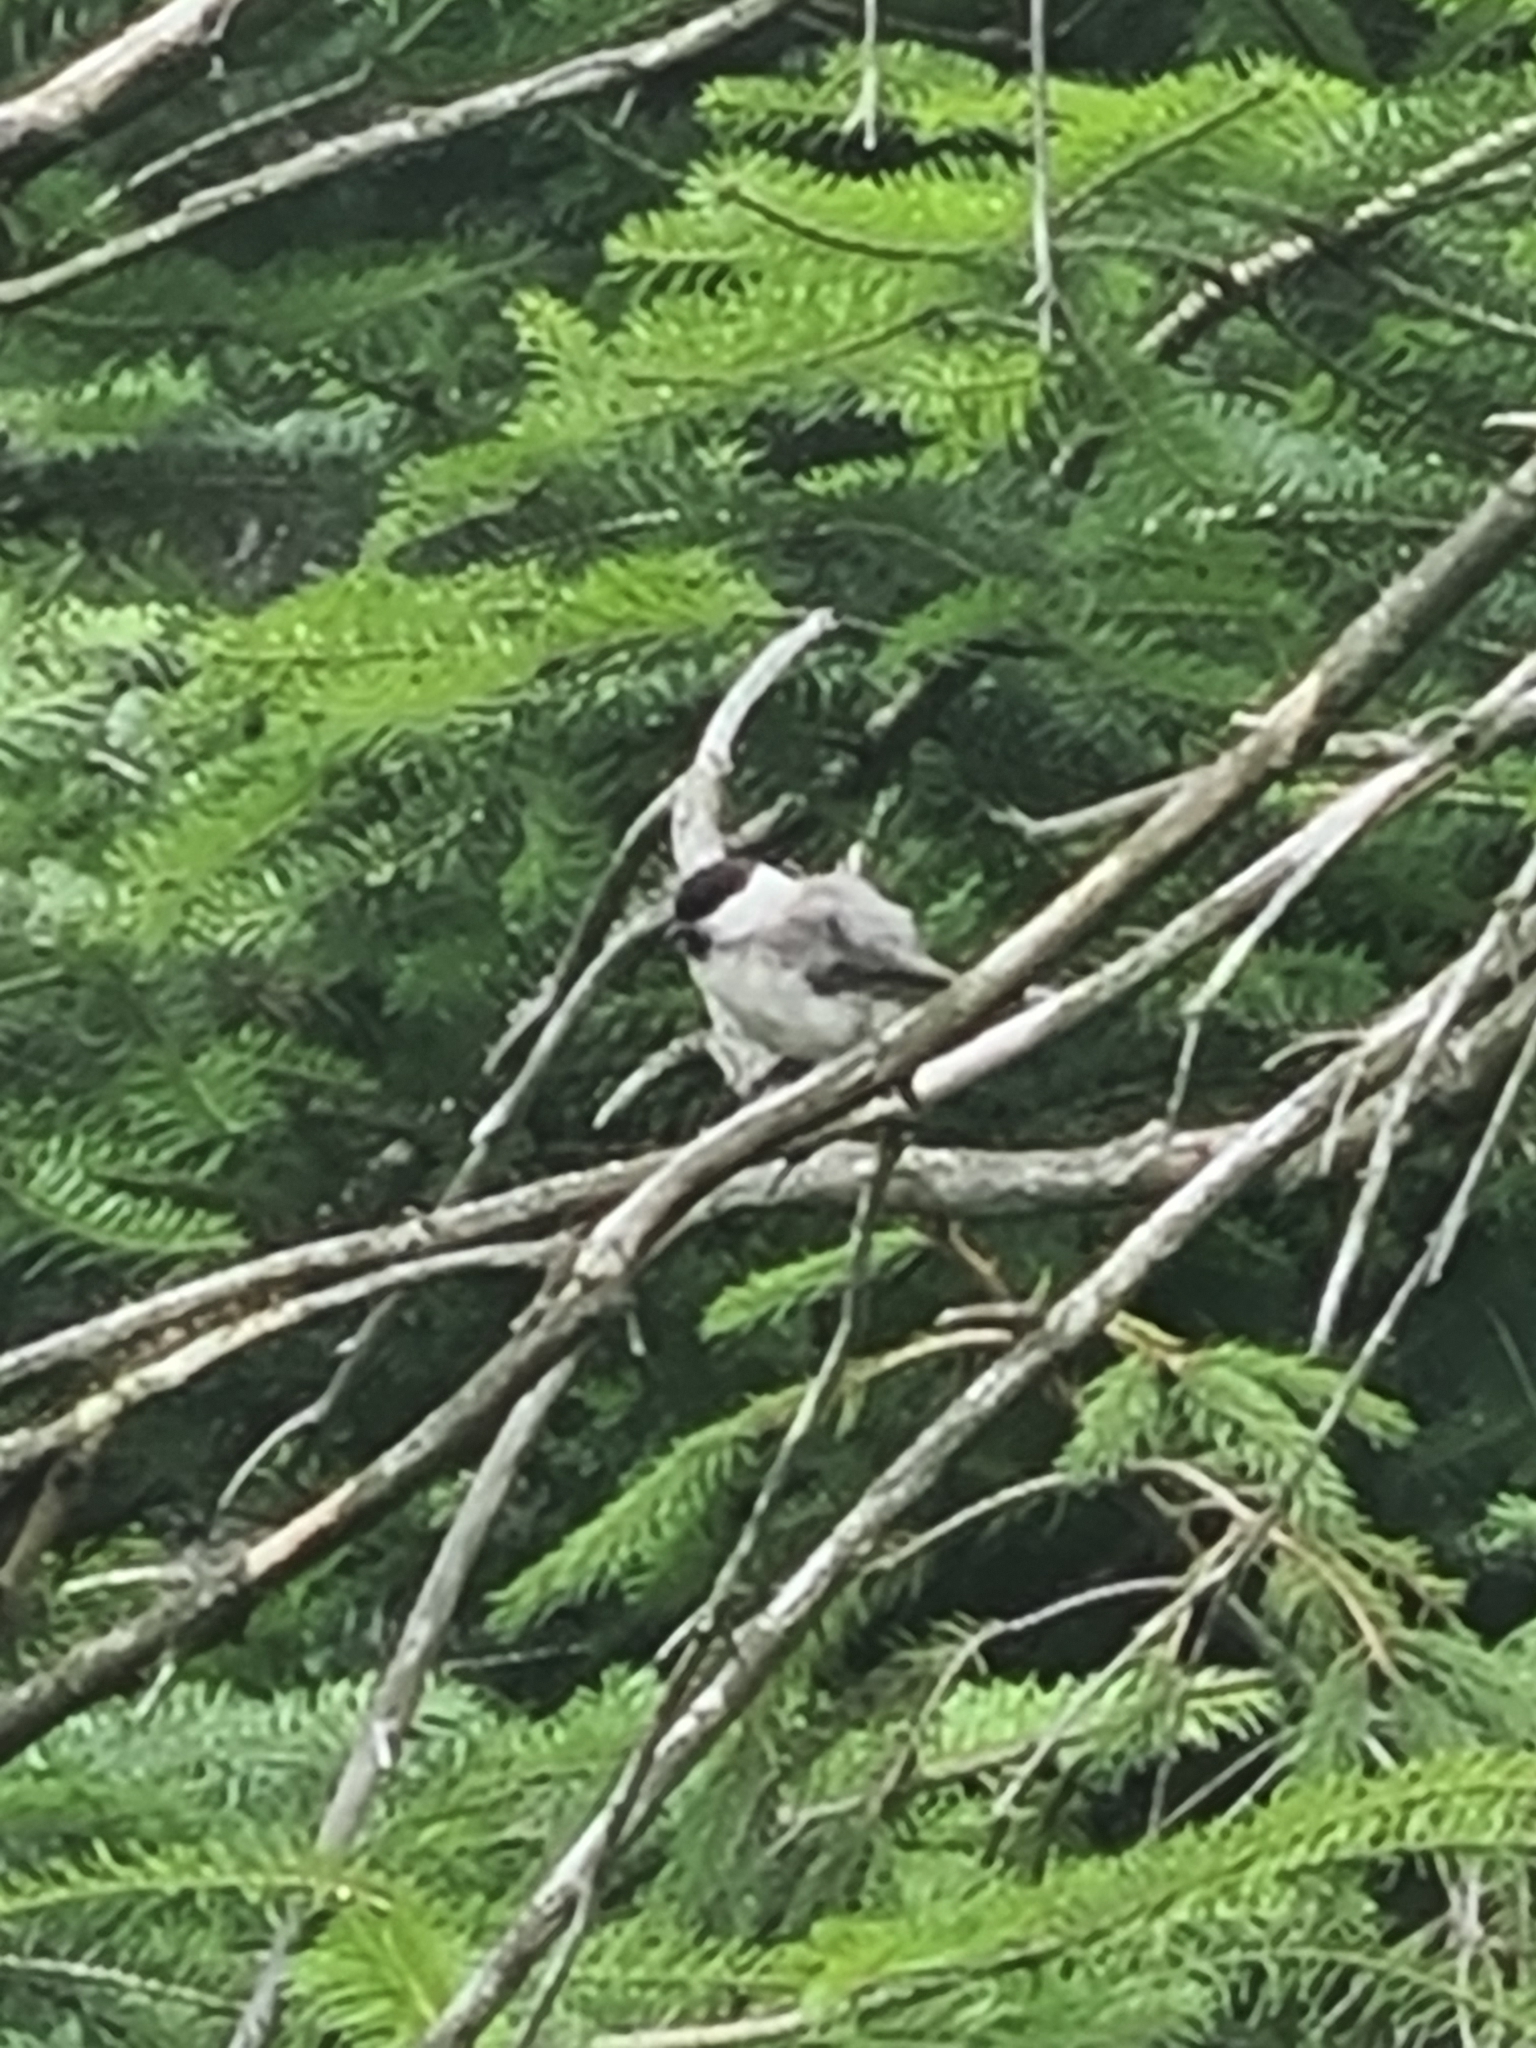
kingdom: Animalia
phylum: Chordata
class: Aves
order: Passeriformes
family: Paridae
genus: Poecile
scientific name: Poecile montanus
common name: Willow tit
